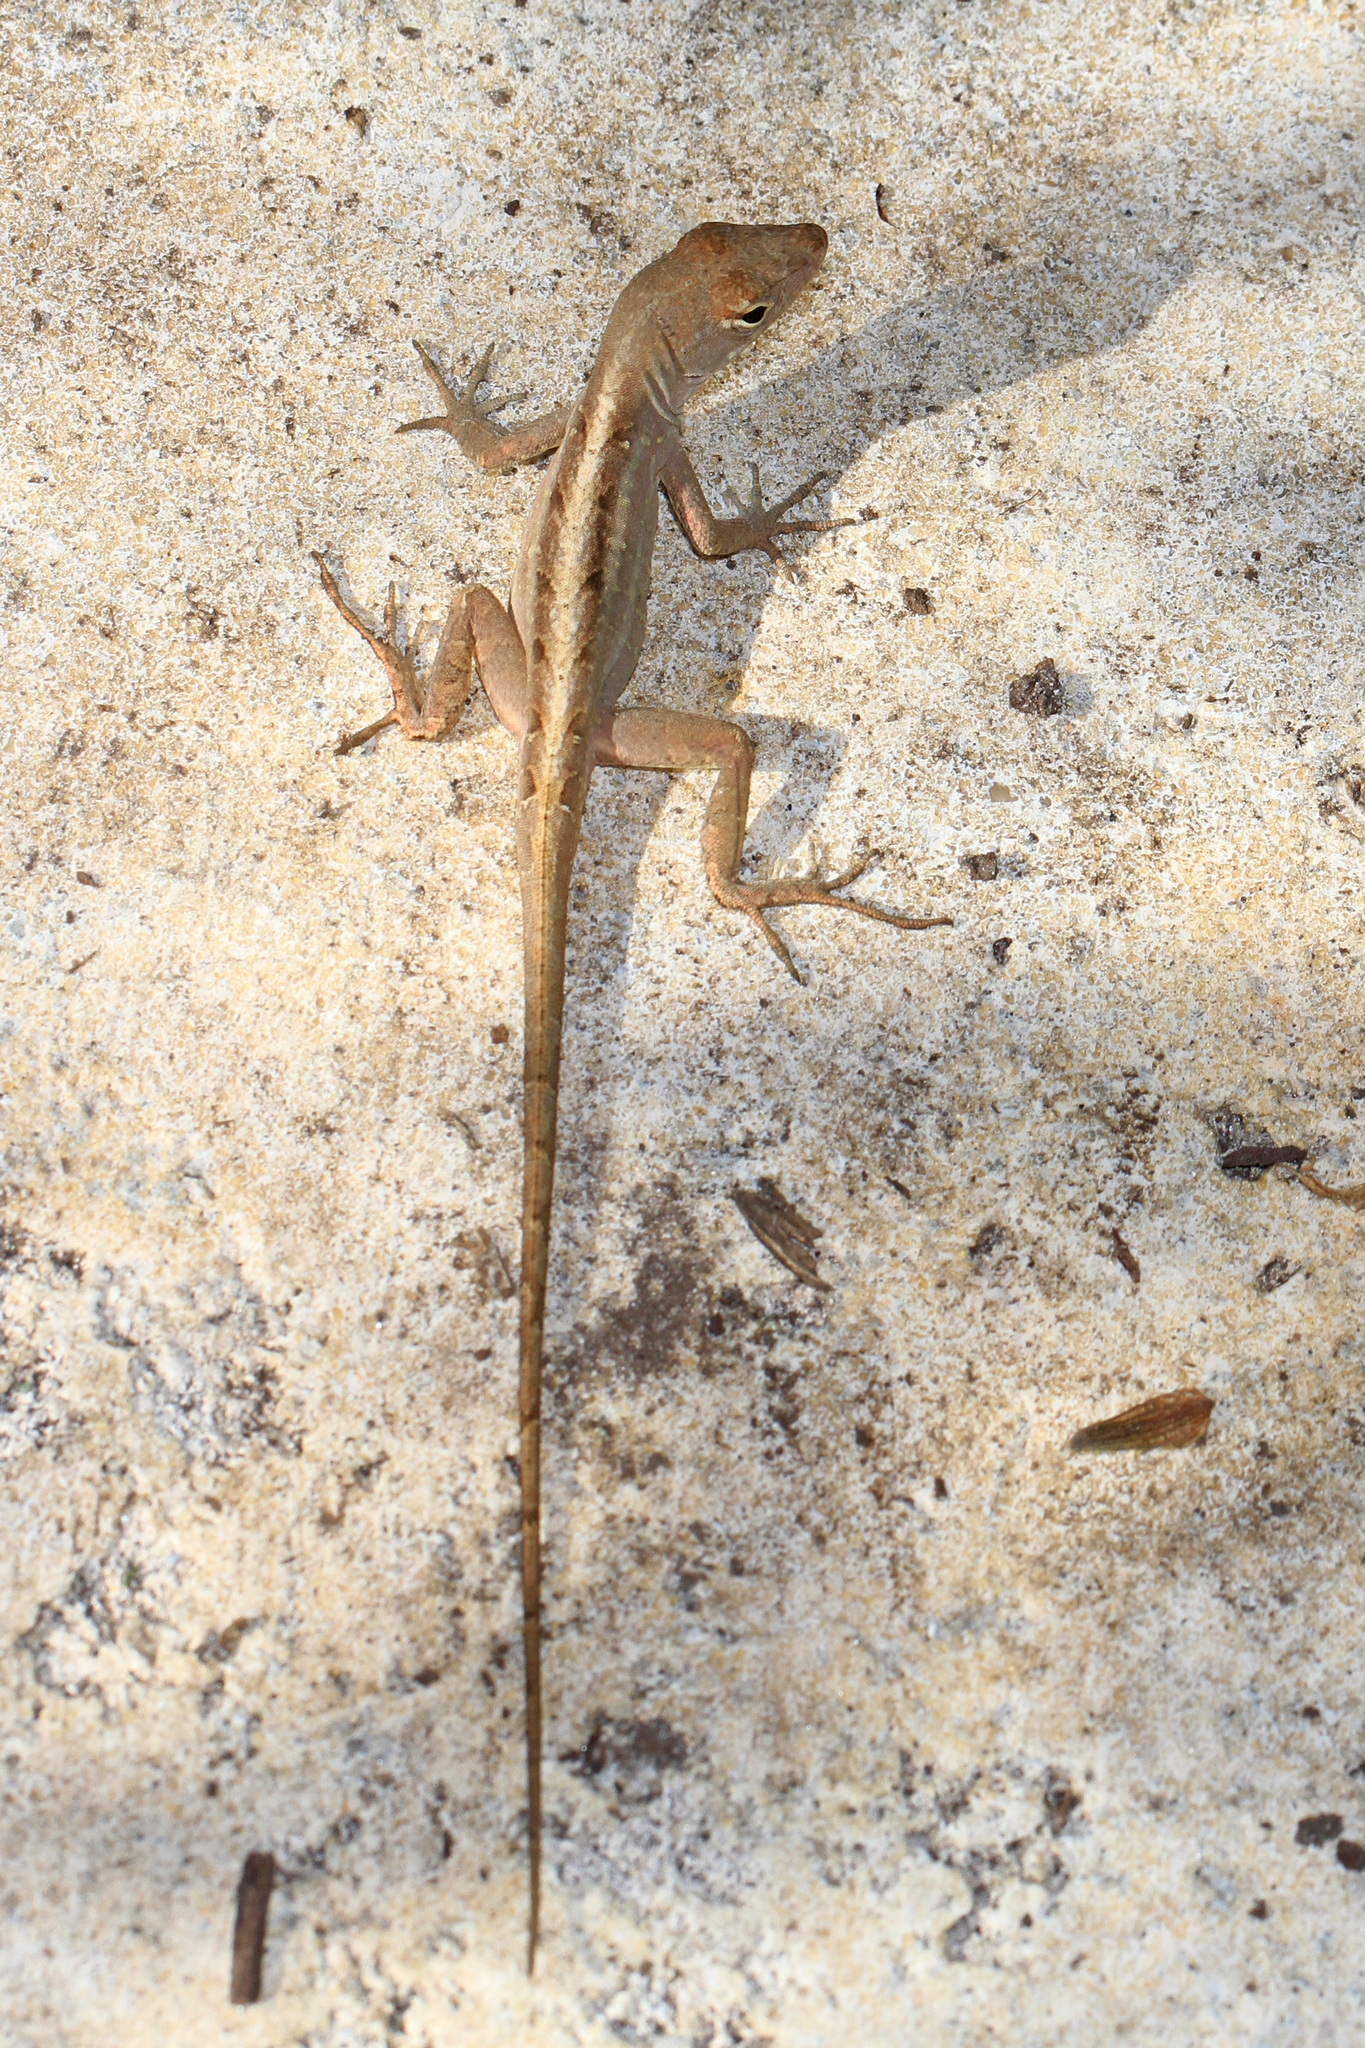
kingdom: Animalia
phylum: Chordata
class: Squamata
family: Dactyloidae
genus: Anolis
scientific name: Anolis sagrei
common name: Brown anole
